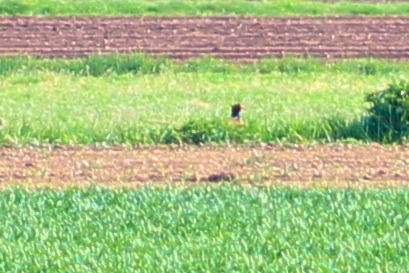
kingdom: Animalia
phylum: Chordata
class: Aves
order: Galliformes
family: Phasianidae
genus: Phasianus
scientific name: Phasianus colchicus
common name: Common pheasant
